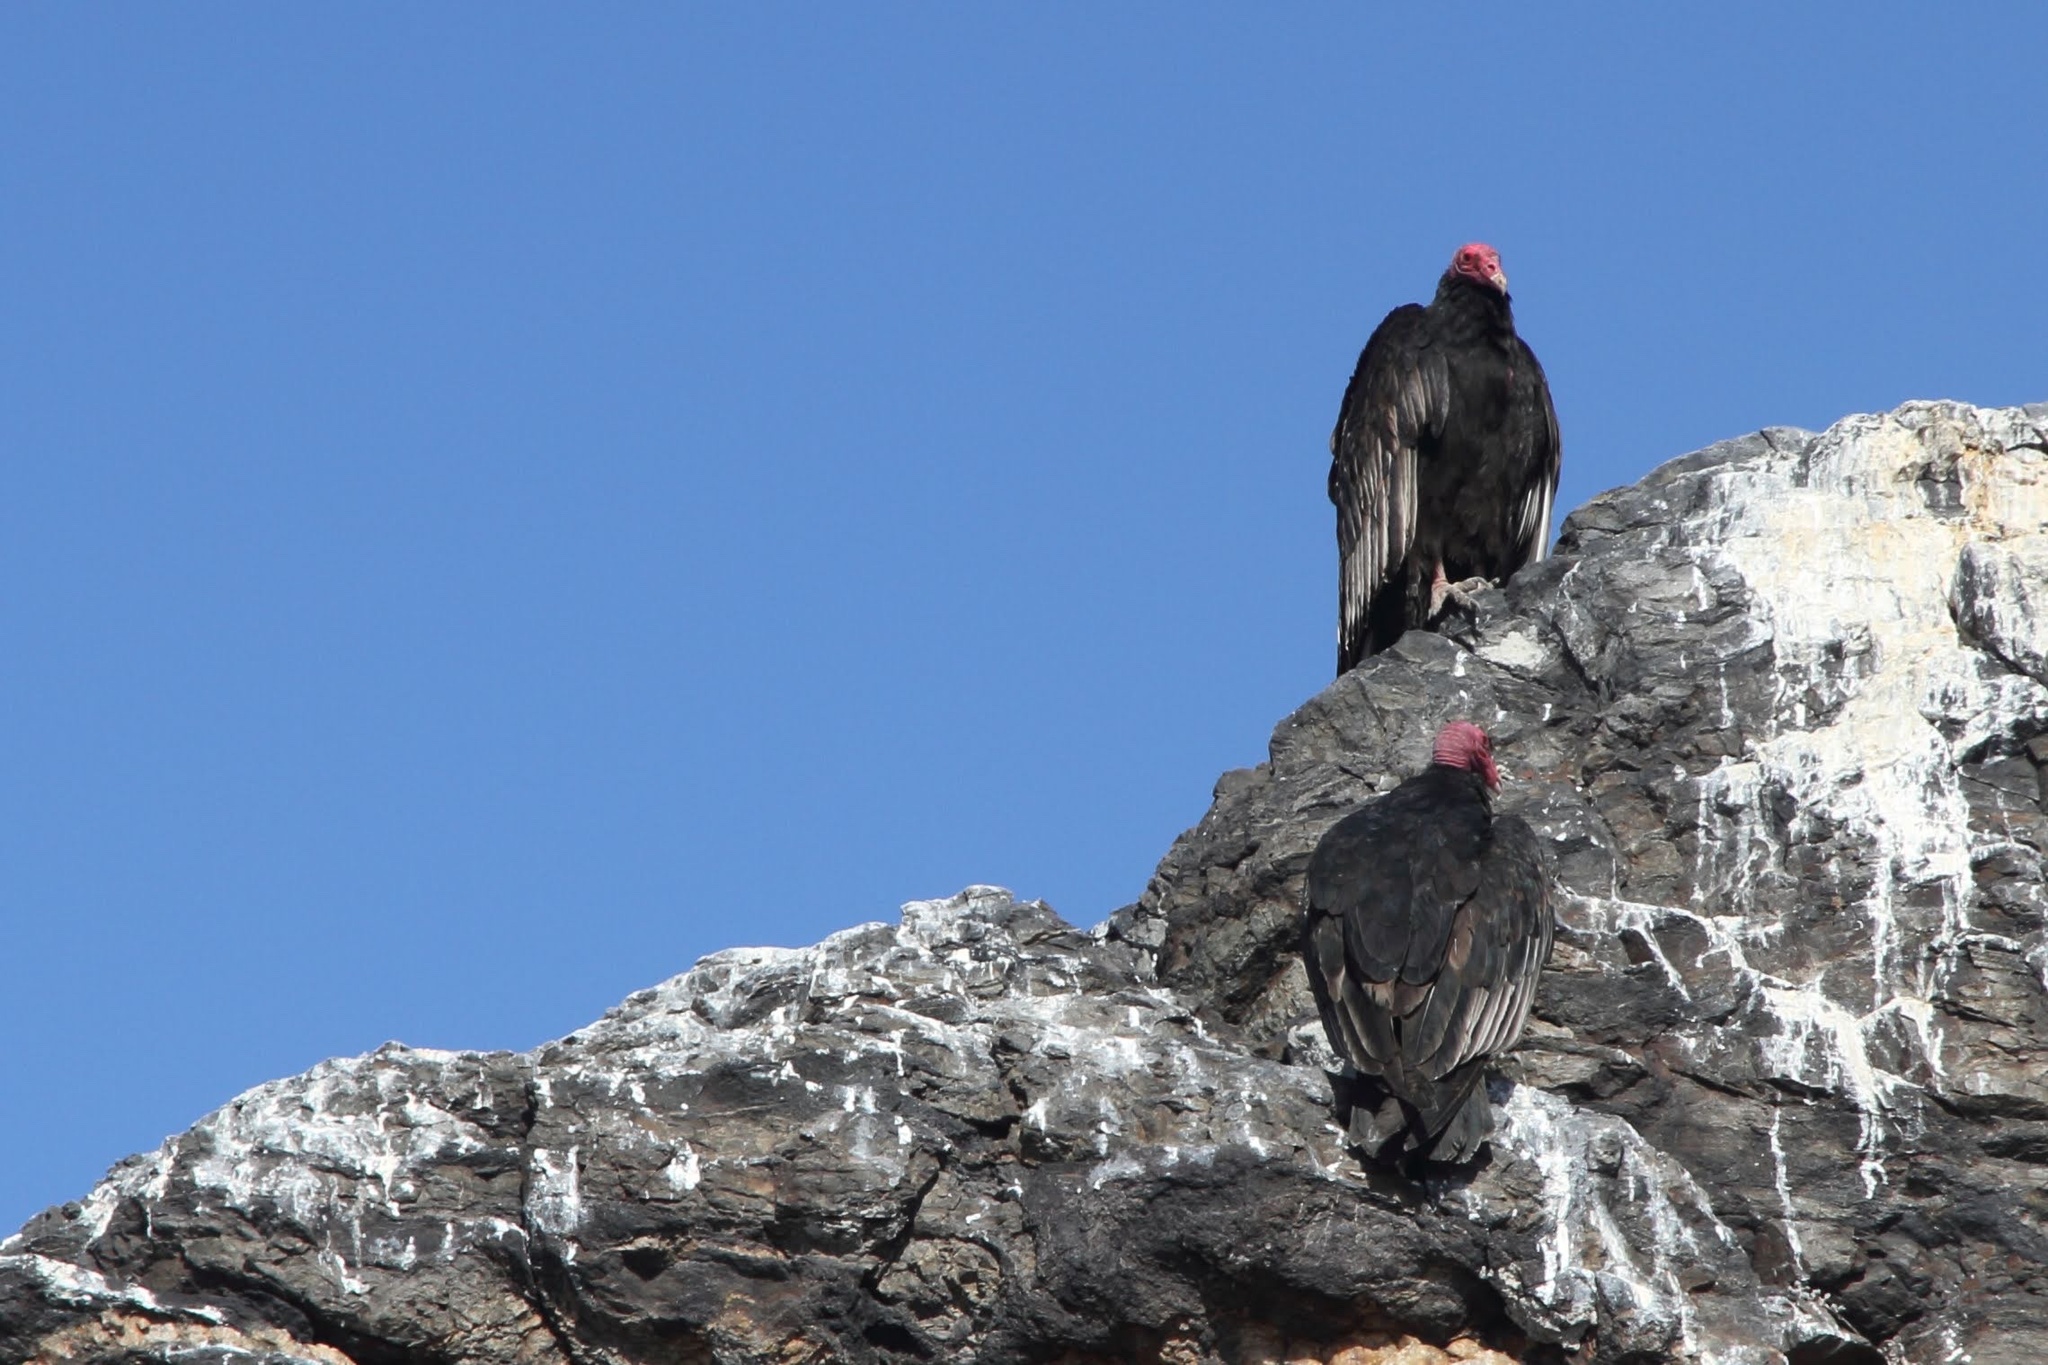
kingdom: Animalia
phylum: Chordata
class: Aves
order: Accipitriformes
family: Cathartidae
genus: Cathartes
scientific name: Cathartes aura
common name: Turkey vulture
